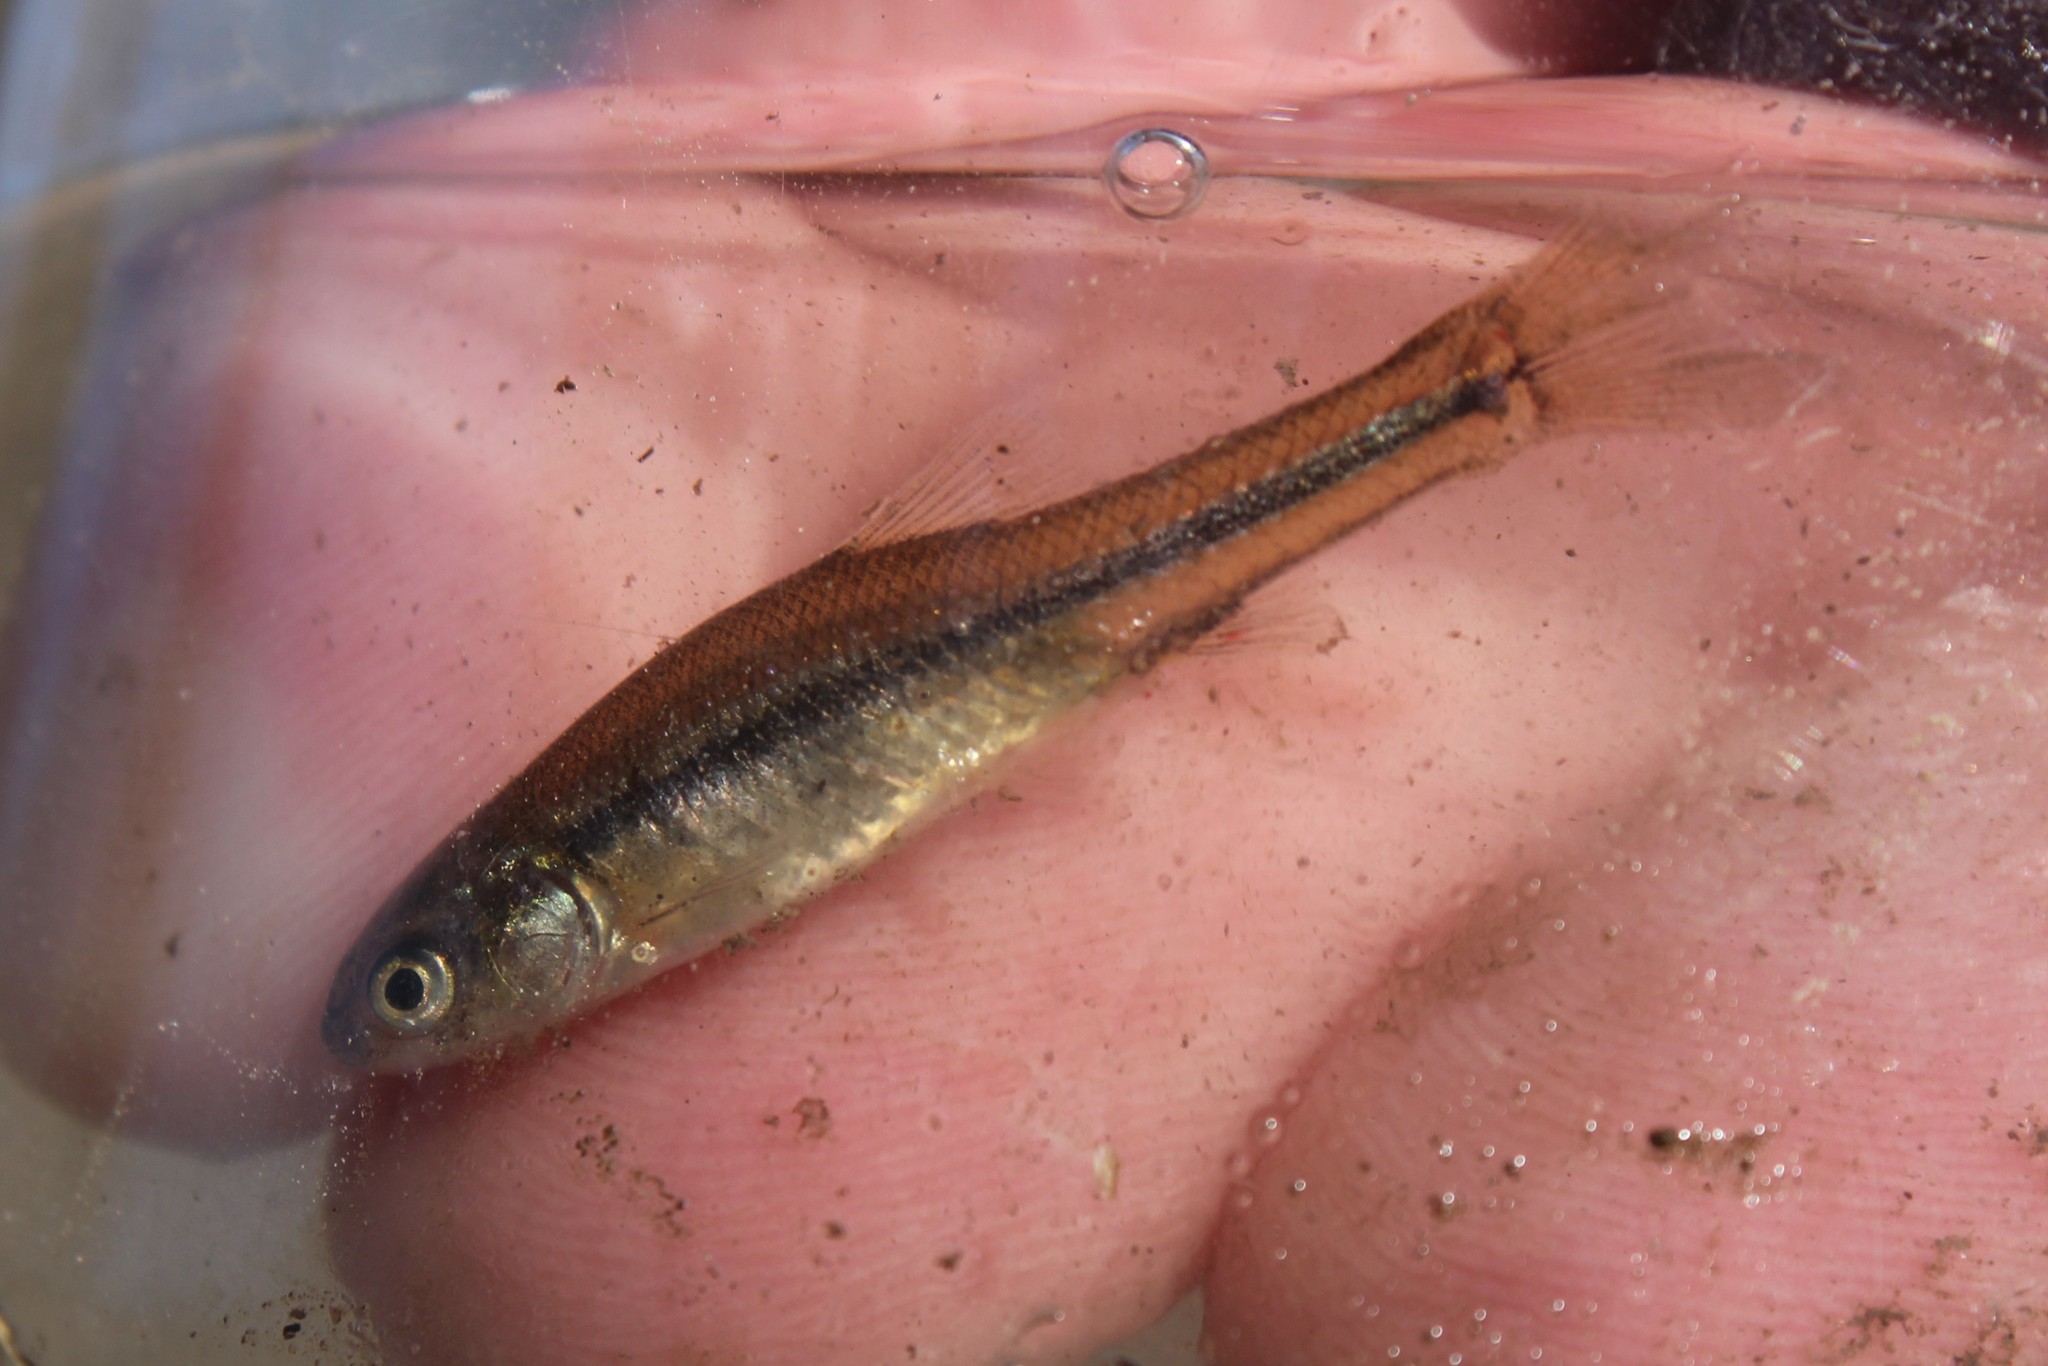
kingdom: Animalia
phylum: Chordata
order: Cypriniformes
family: Cyprinidae
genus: Pimephales
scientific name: Pimephales promelas
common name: Fathead minnow
